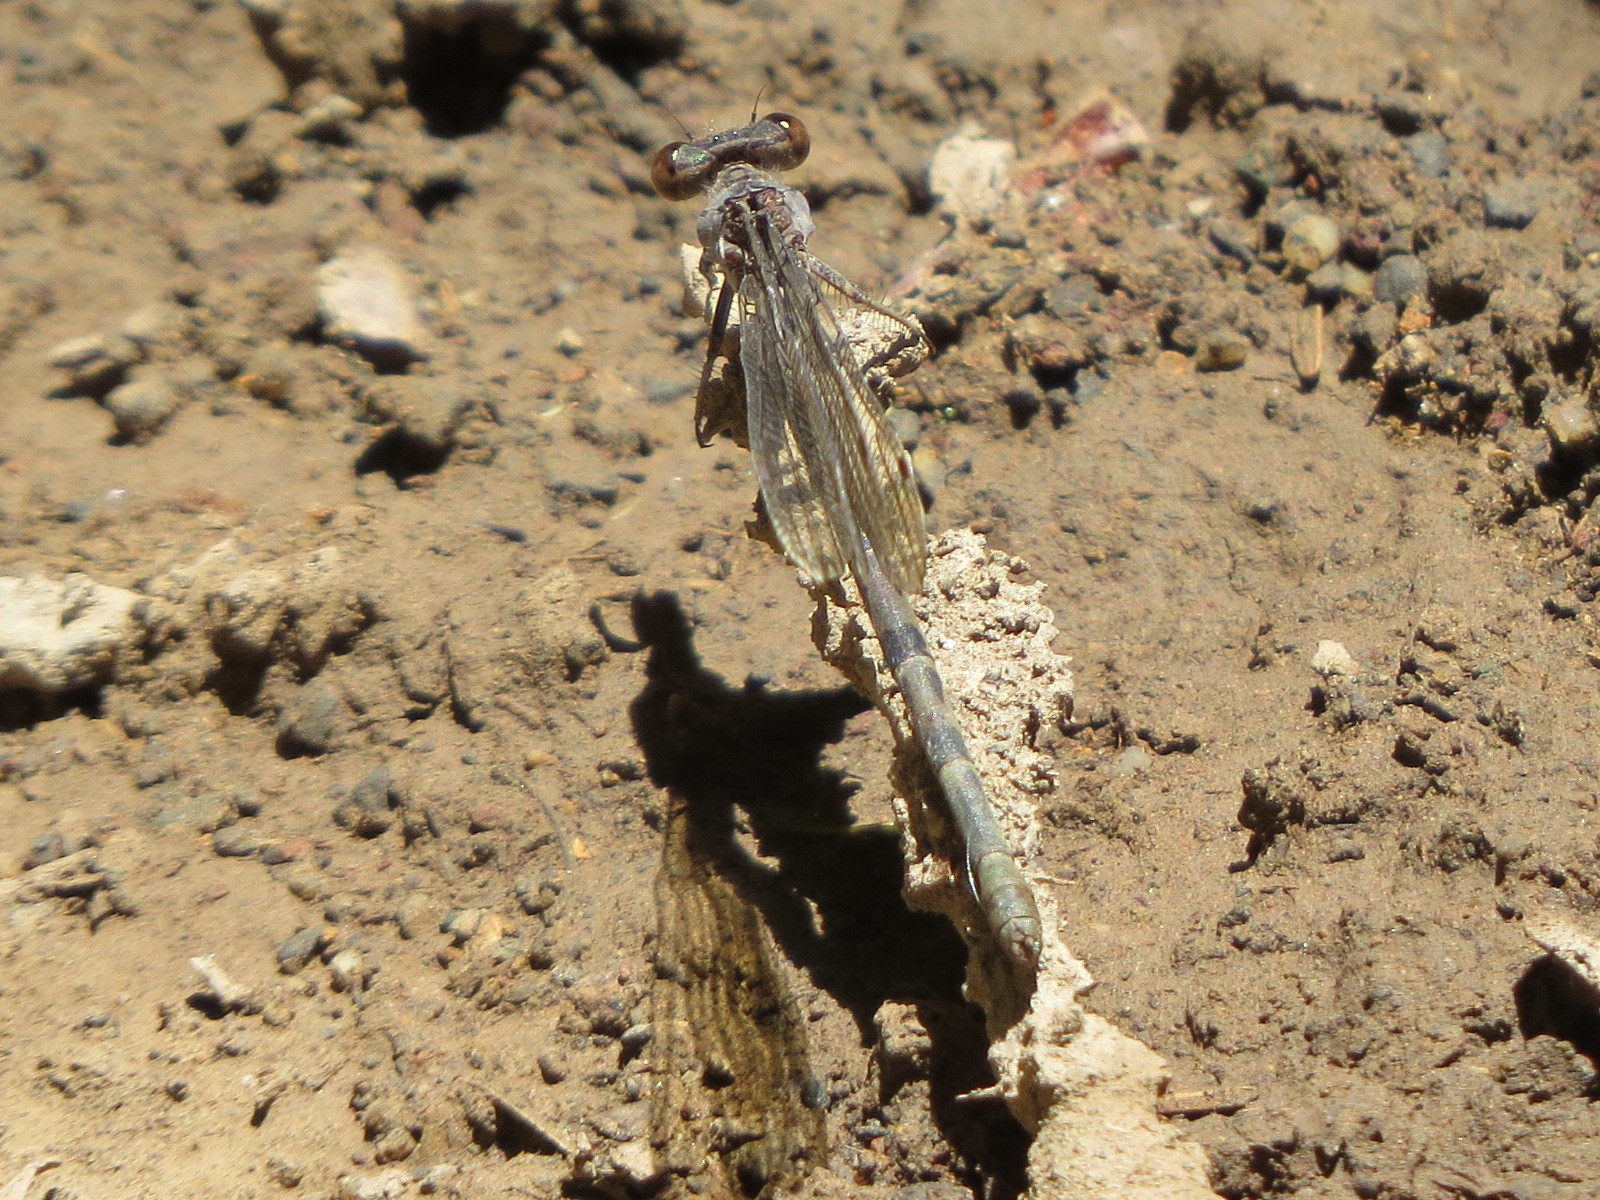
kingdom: Animalia
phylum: Arthropoda
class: Insecta
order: Odonata
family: Coenagrionidae
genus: Argia
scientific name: Argia vivida
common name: Vivid dancer
